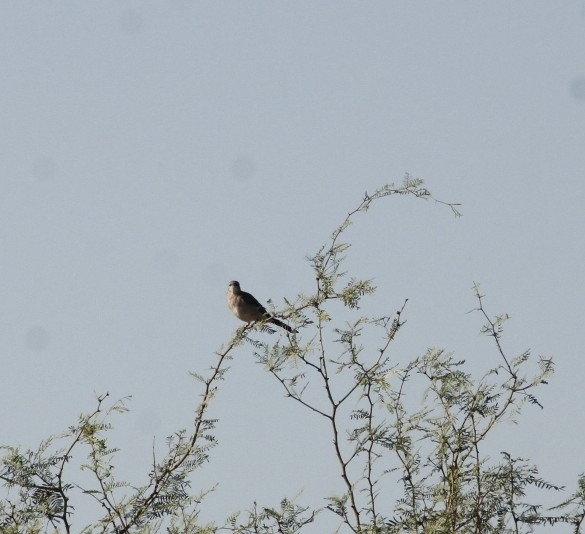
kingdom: Animalia
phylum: Chordata
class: Aves
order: Passeriformes
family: Mimidae
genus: Mimus
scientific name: Mimus polyglottos
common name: Northern mockingbird
